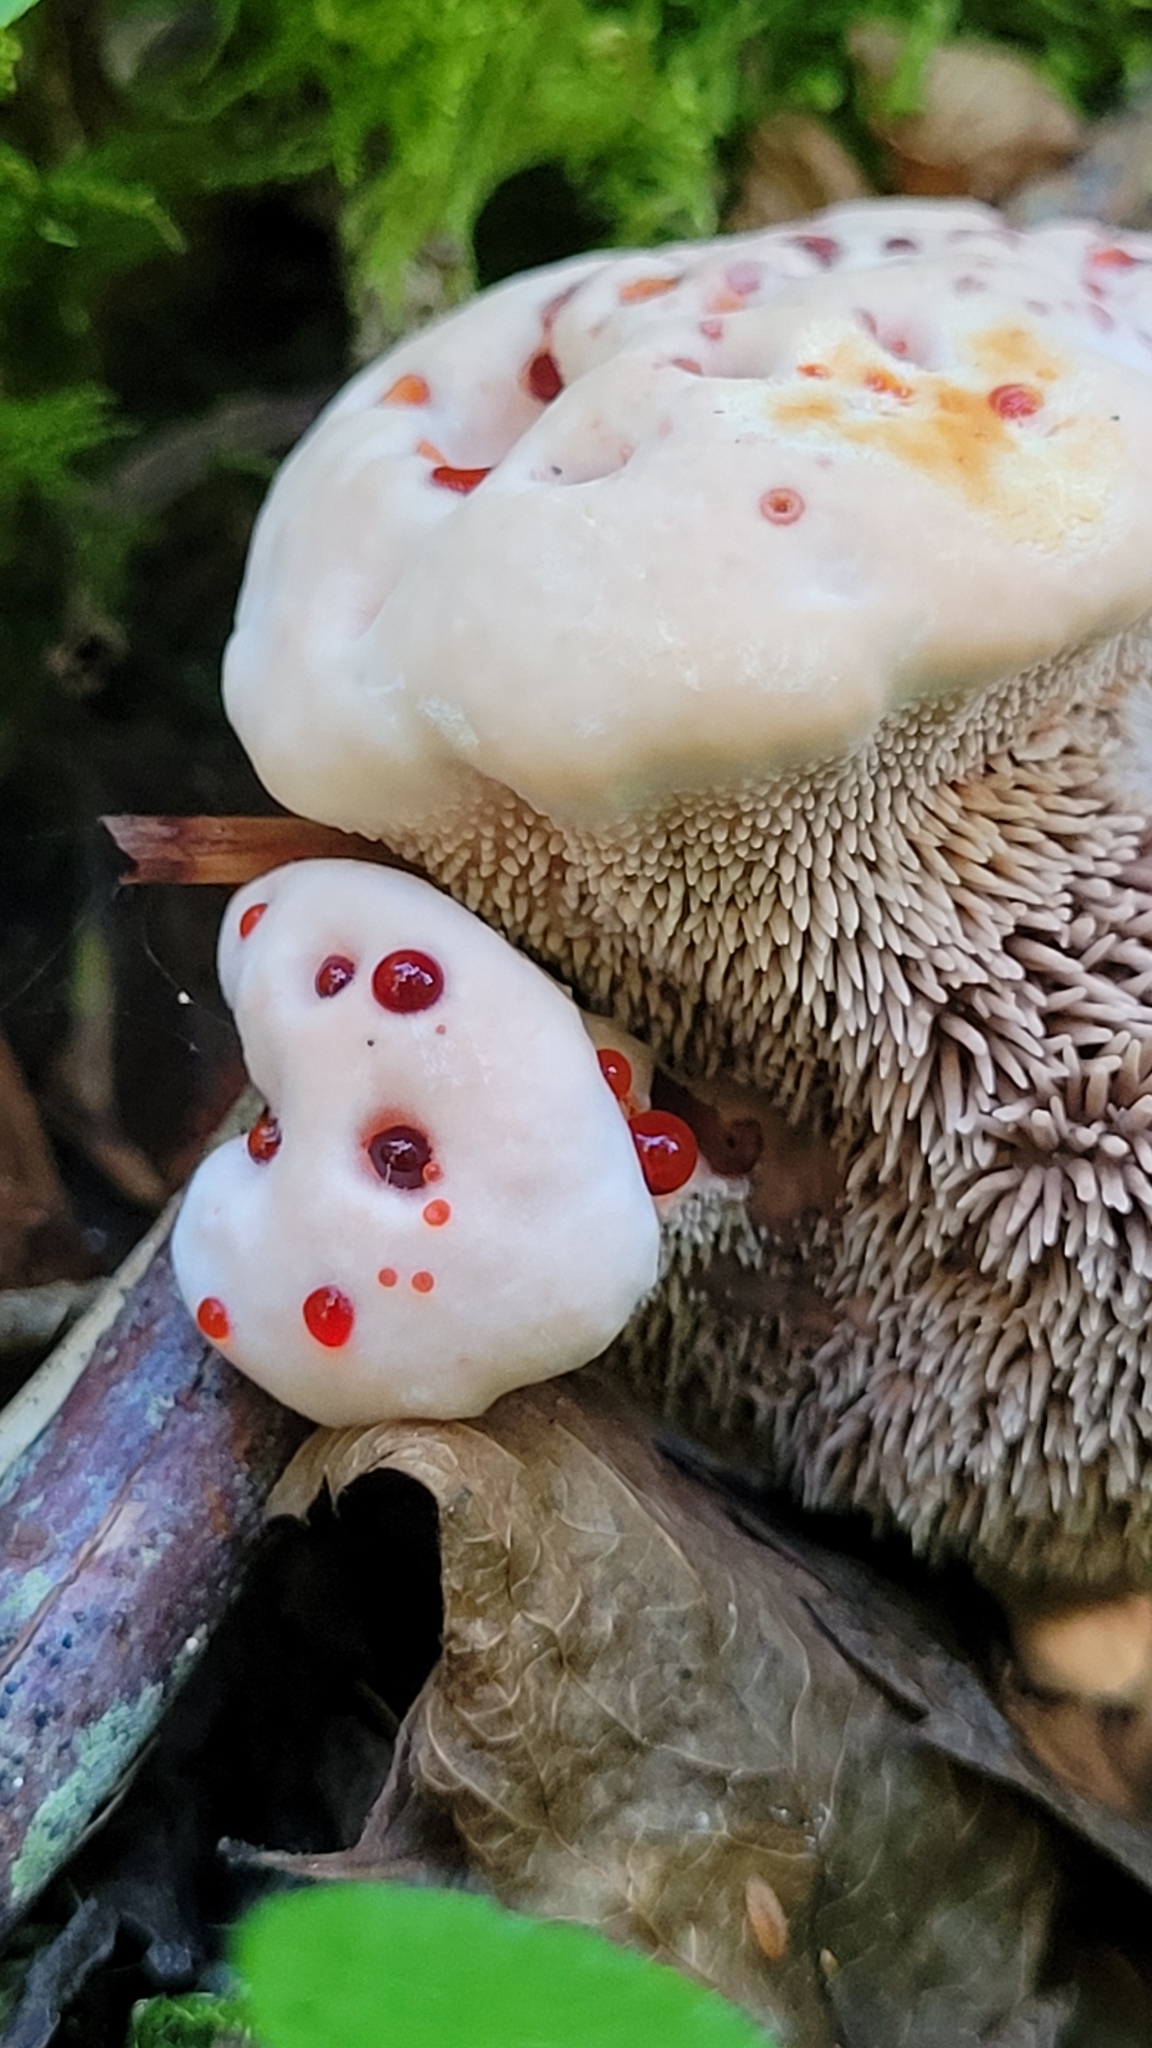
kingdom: Fungi
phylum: Basidiomycota
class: Agaricomycetes
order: Thelephorales
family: Bankeraceae
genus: Hydnellum
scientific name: Hydnellum peckii
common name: Devil's tooth
